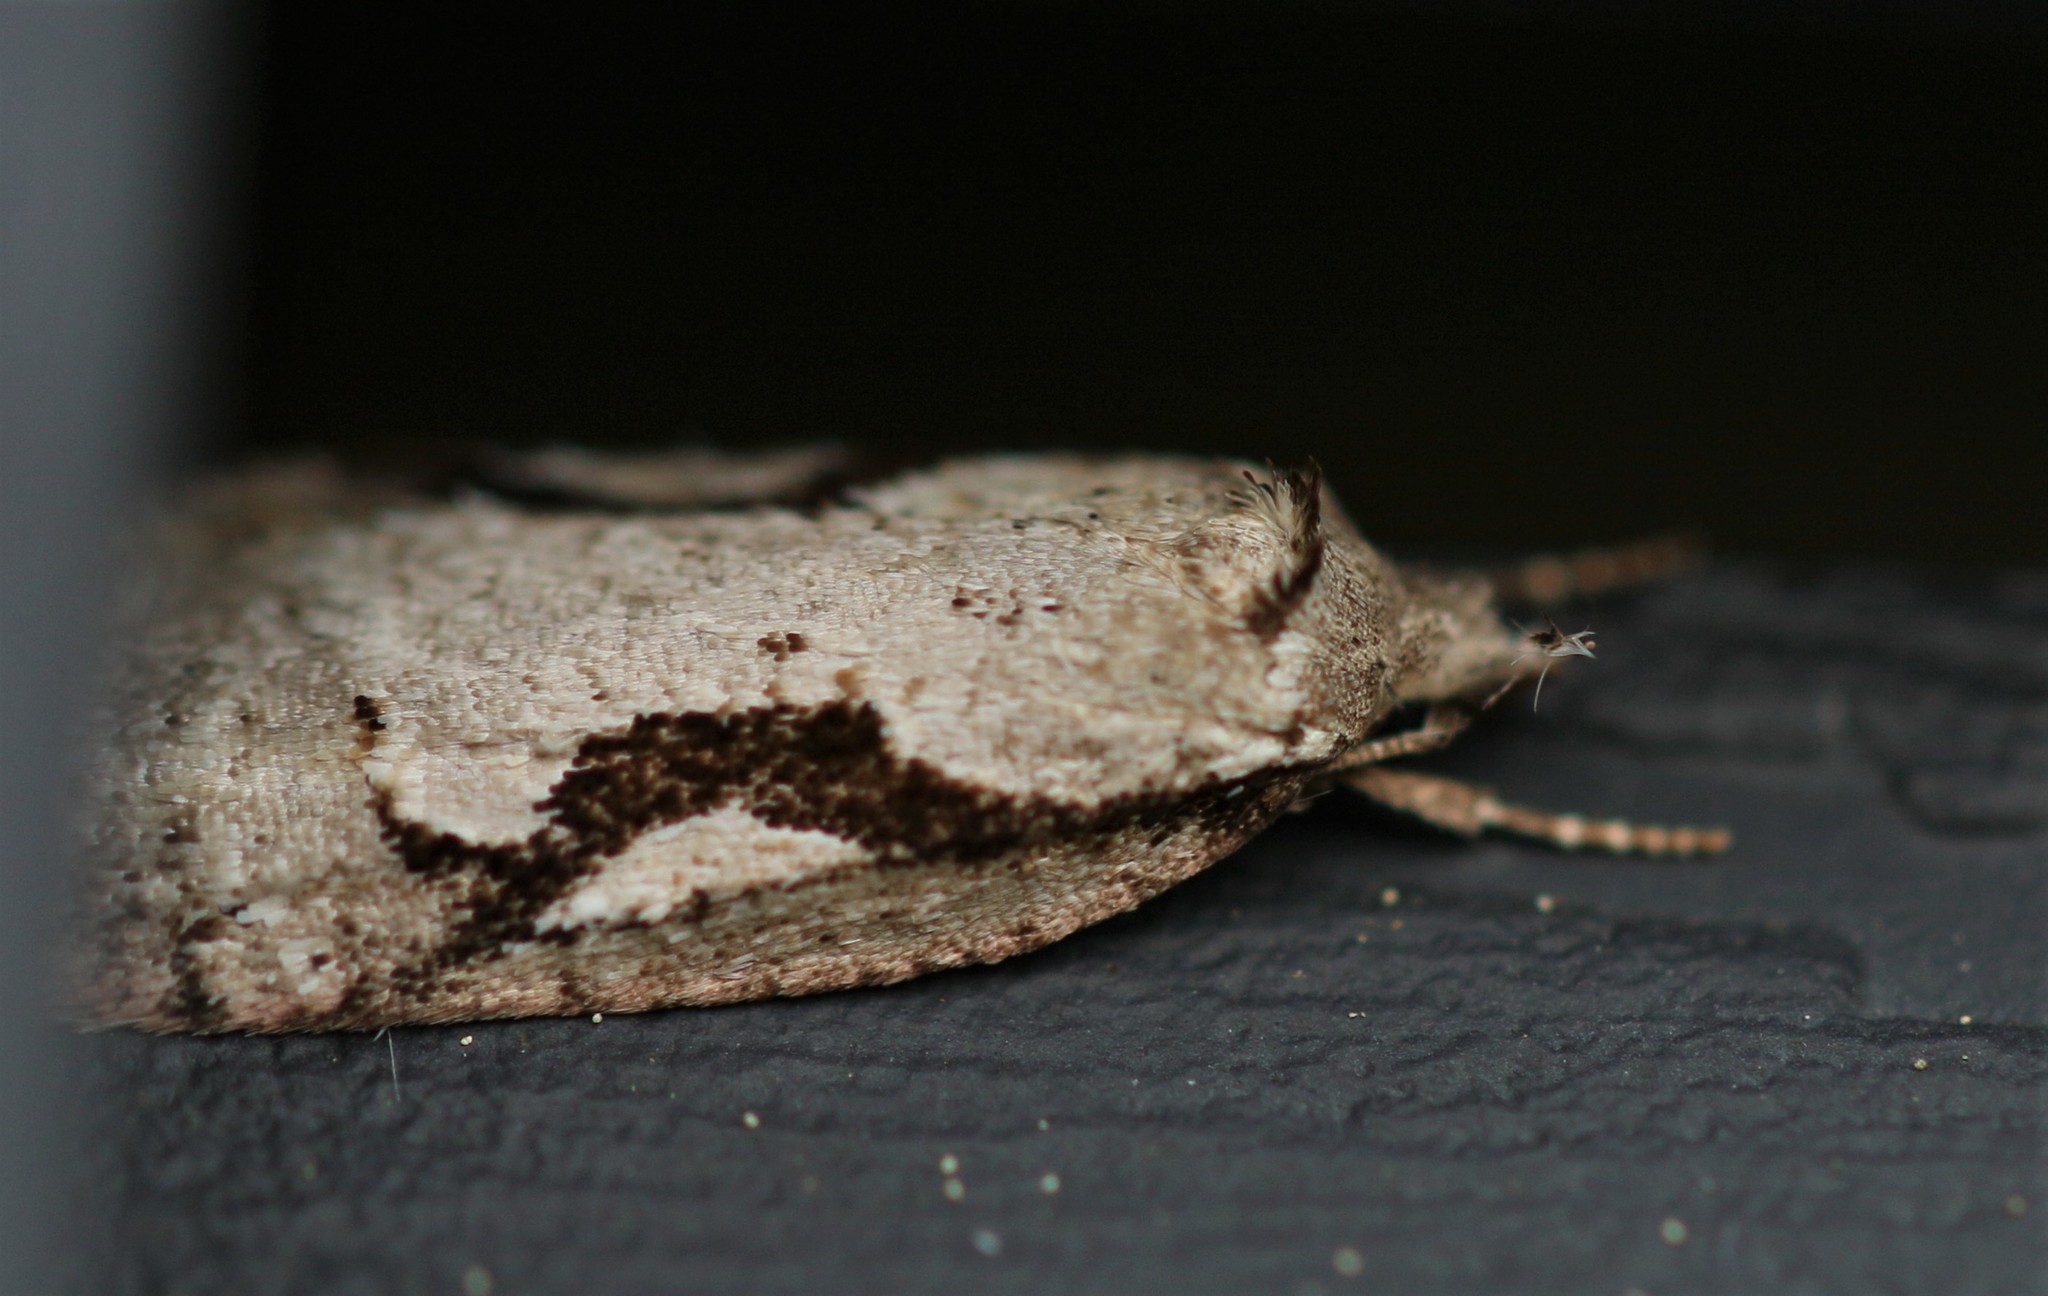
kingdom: Animalia
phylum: Arthropoda
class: Insecta
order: Lepidoptera
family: Depressariidae
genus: Semioscopis
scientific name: Semioscopis packardella
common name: Packard's concealer moth
